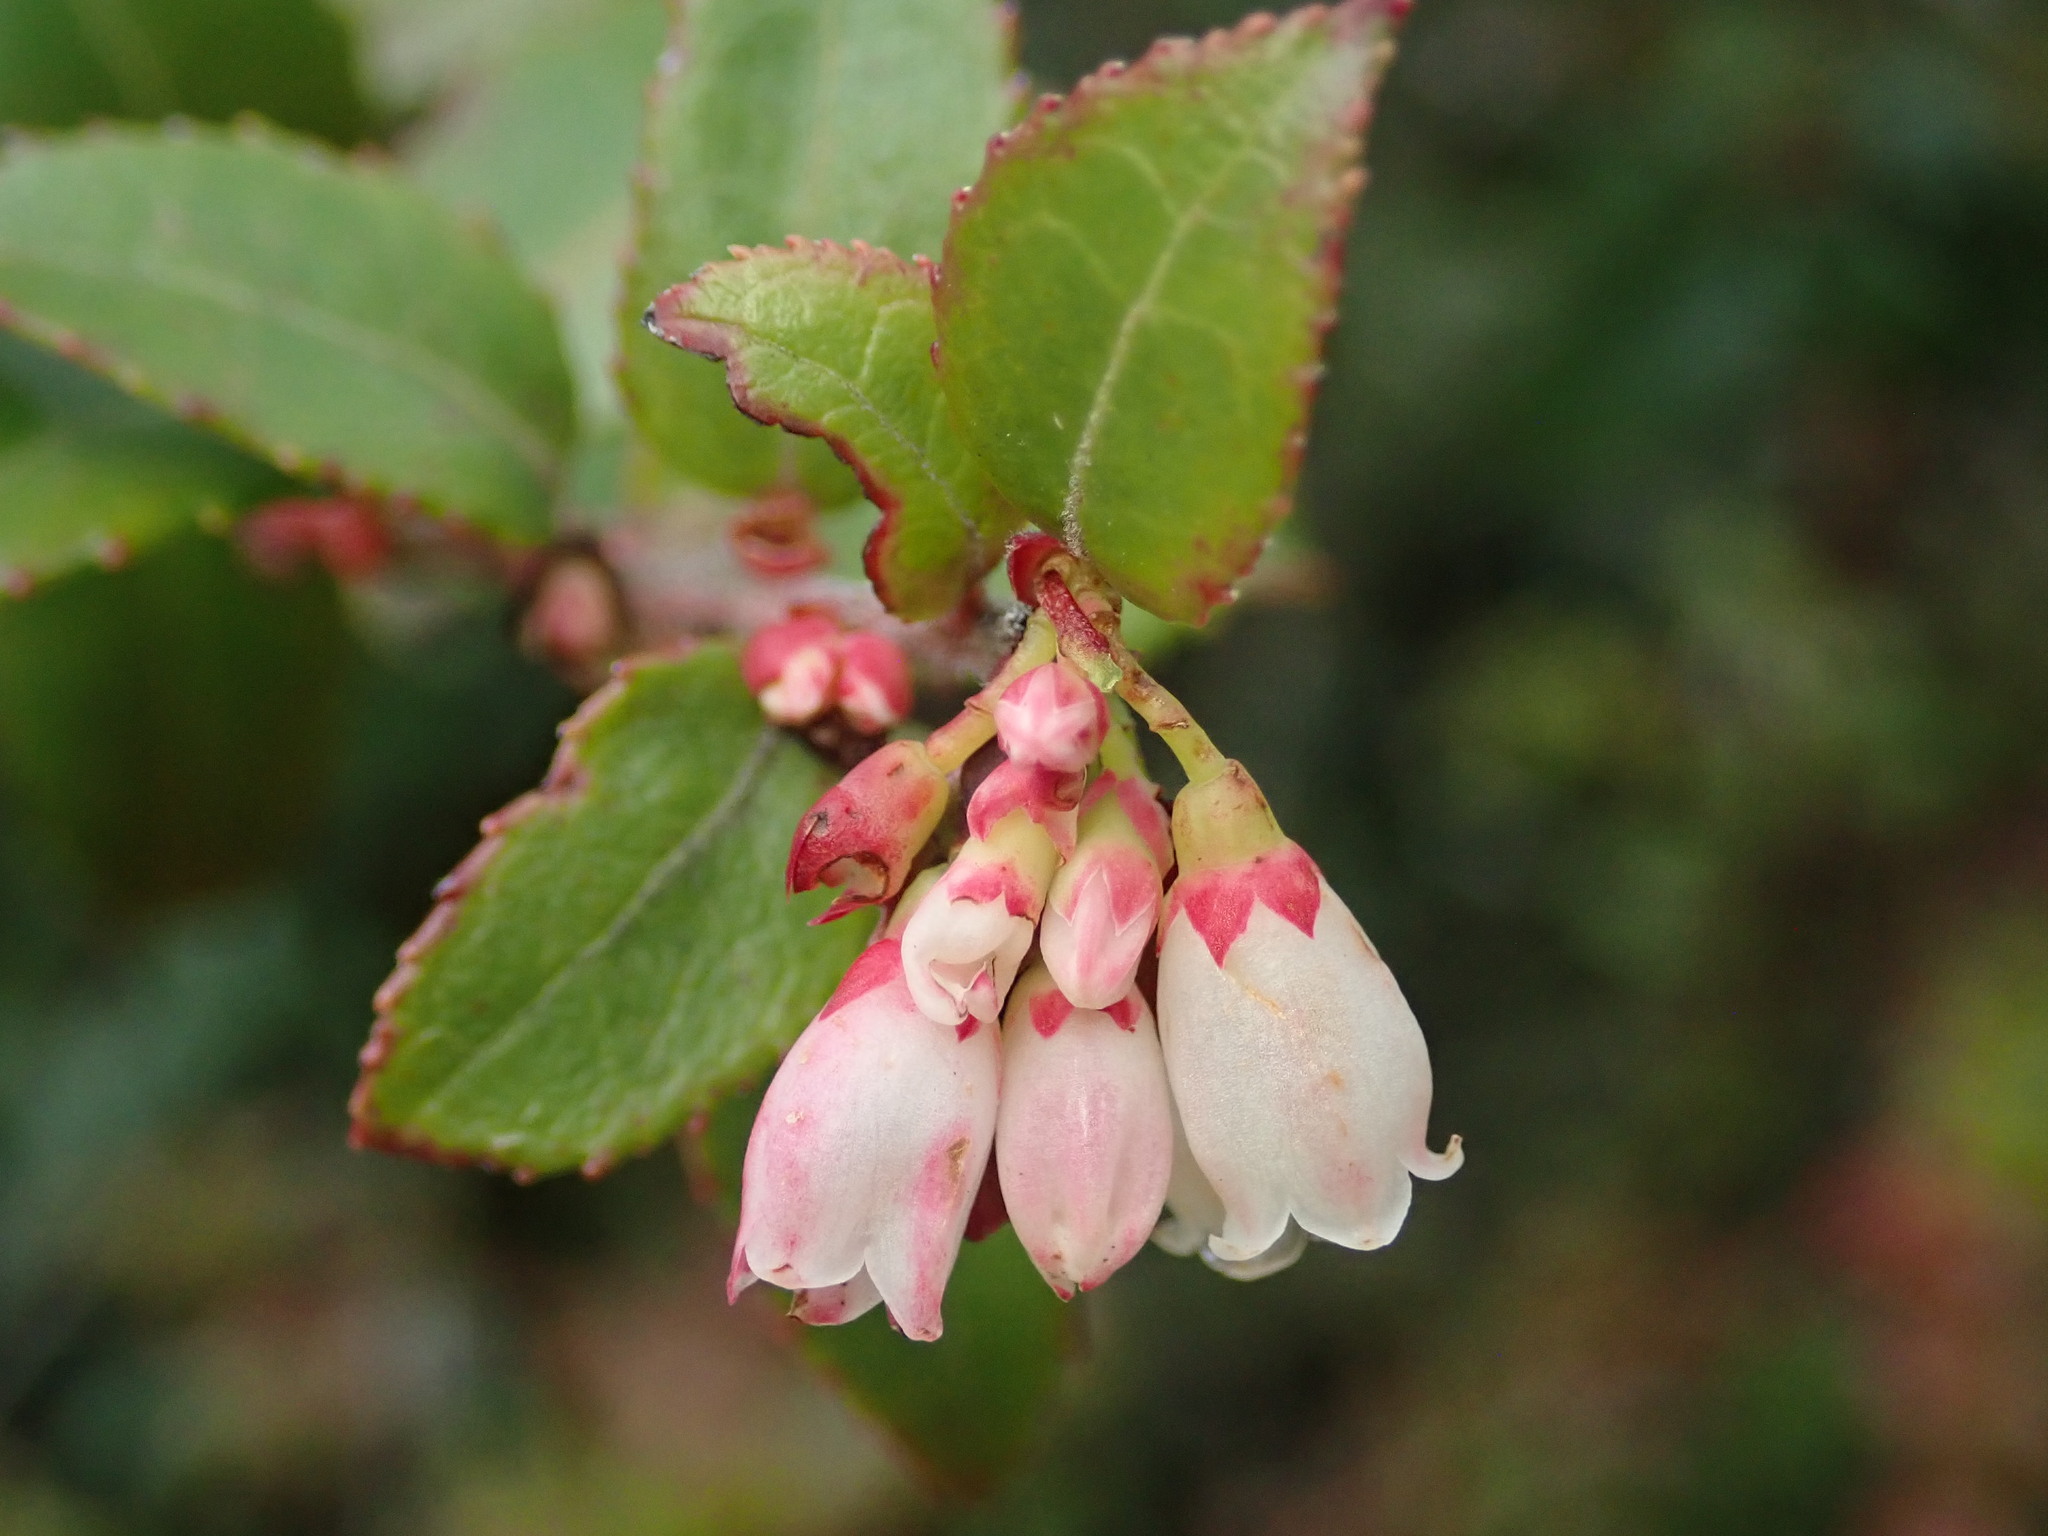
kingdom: Plantae
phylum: Tracheophyta
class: Magnoliopsida
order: Ericales
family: Ericaceae
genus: Vaccinium
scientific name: Vaccinium ovatum
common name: California-huckleberry
